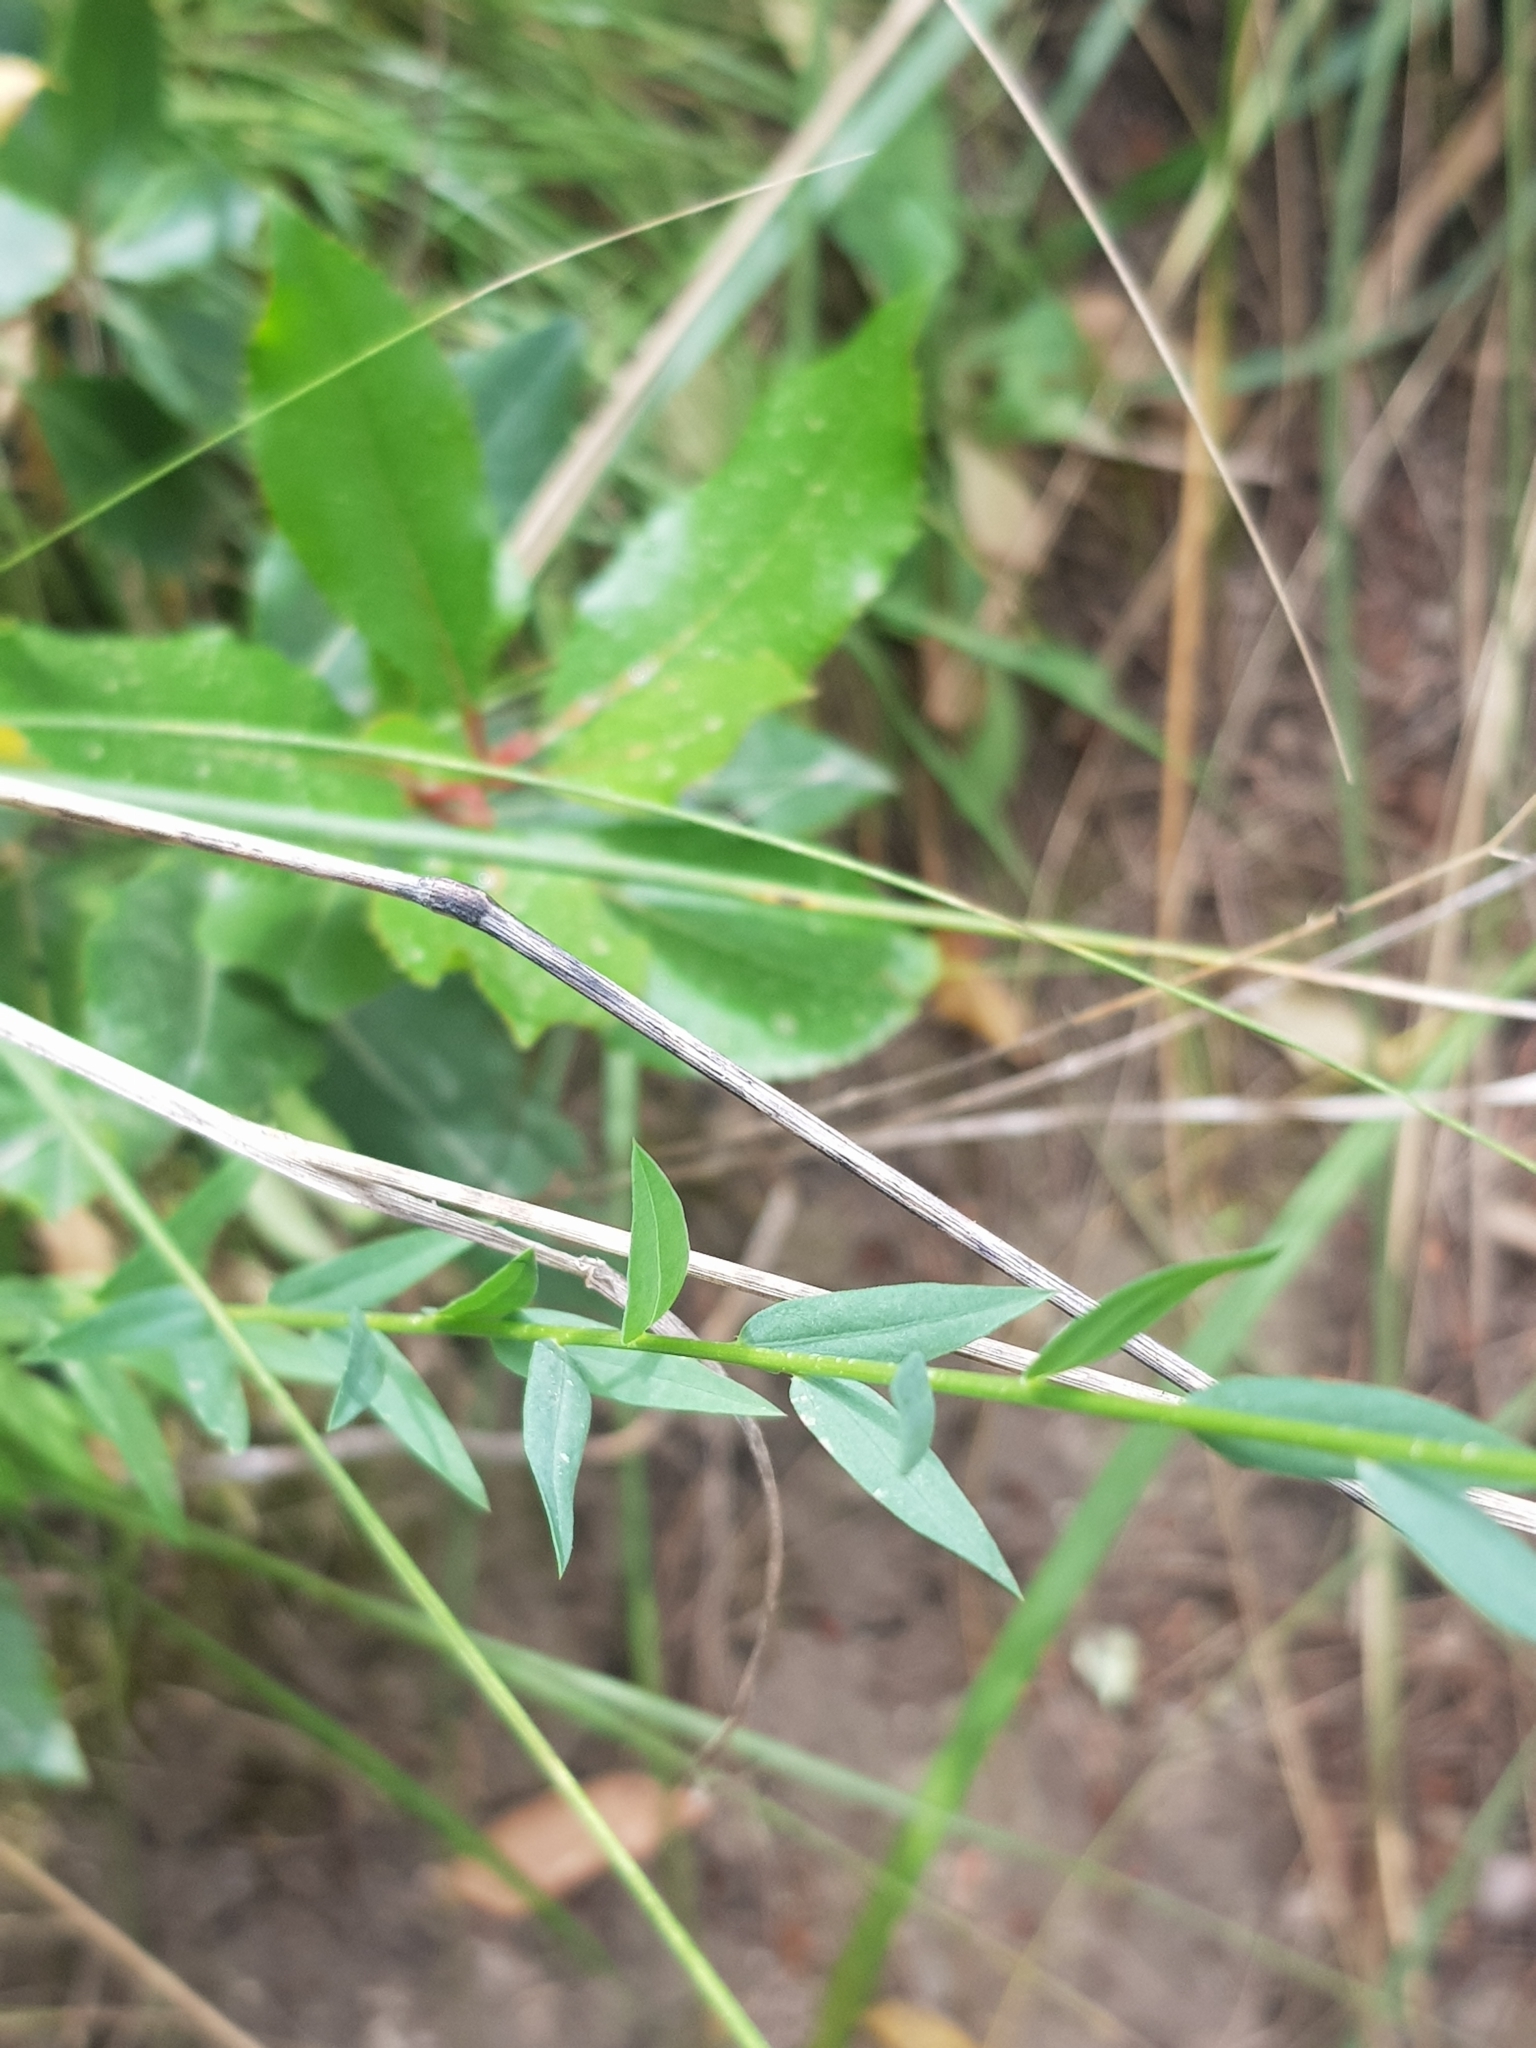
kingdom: Plantae
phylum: Tracheophyta
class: Magnoliopsida
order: Malpighiales
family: Linaceae
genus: Linum
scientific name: Linum corymbiferum
